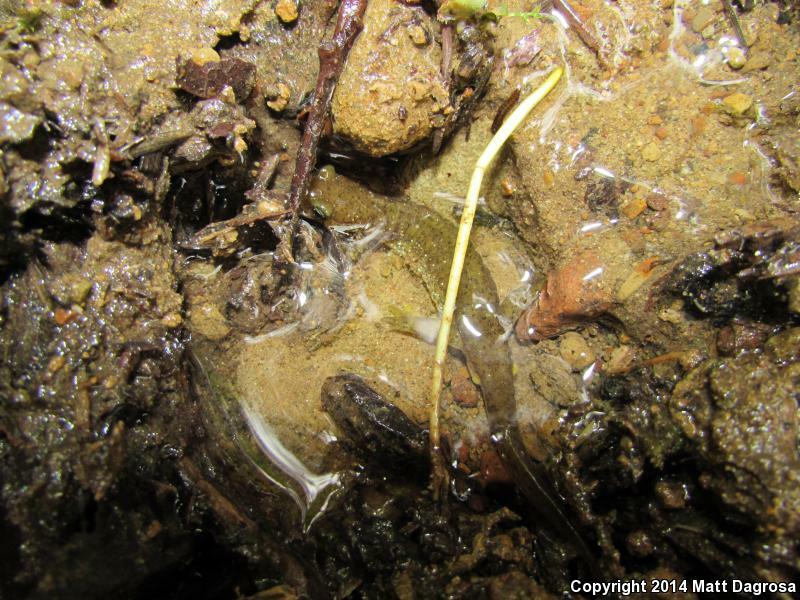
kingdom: Animalia
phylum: Chordata
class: Amphibia
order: Caudata
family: Rhyacotritonidae
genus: Rhyacotriton
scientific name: Rhyacotriton variegatus
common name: Southern torrent salamander
